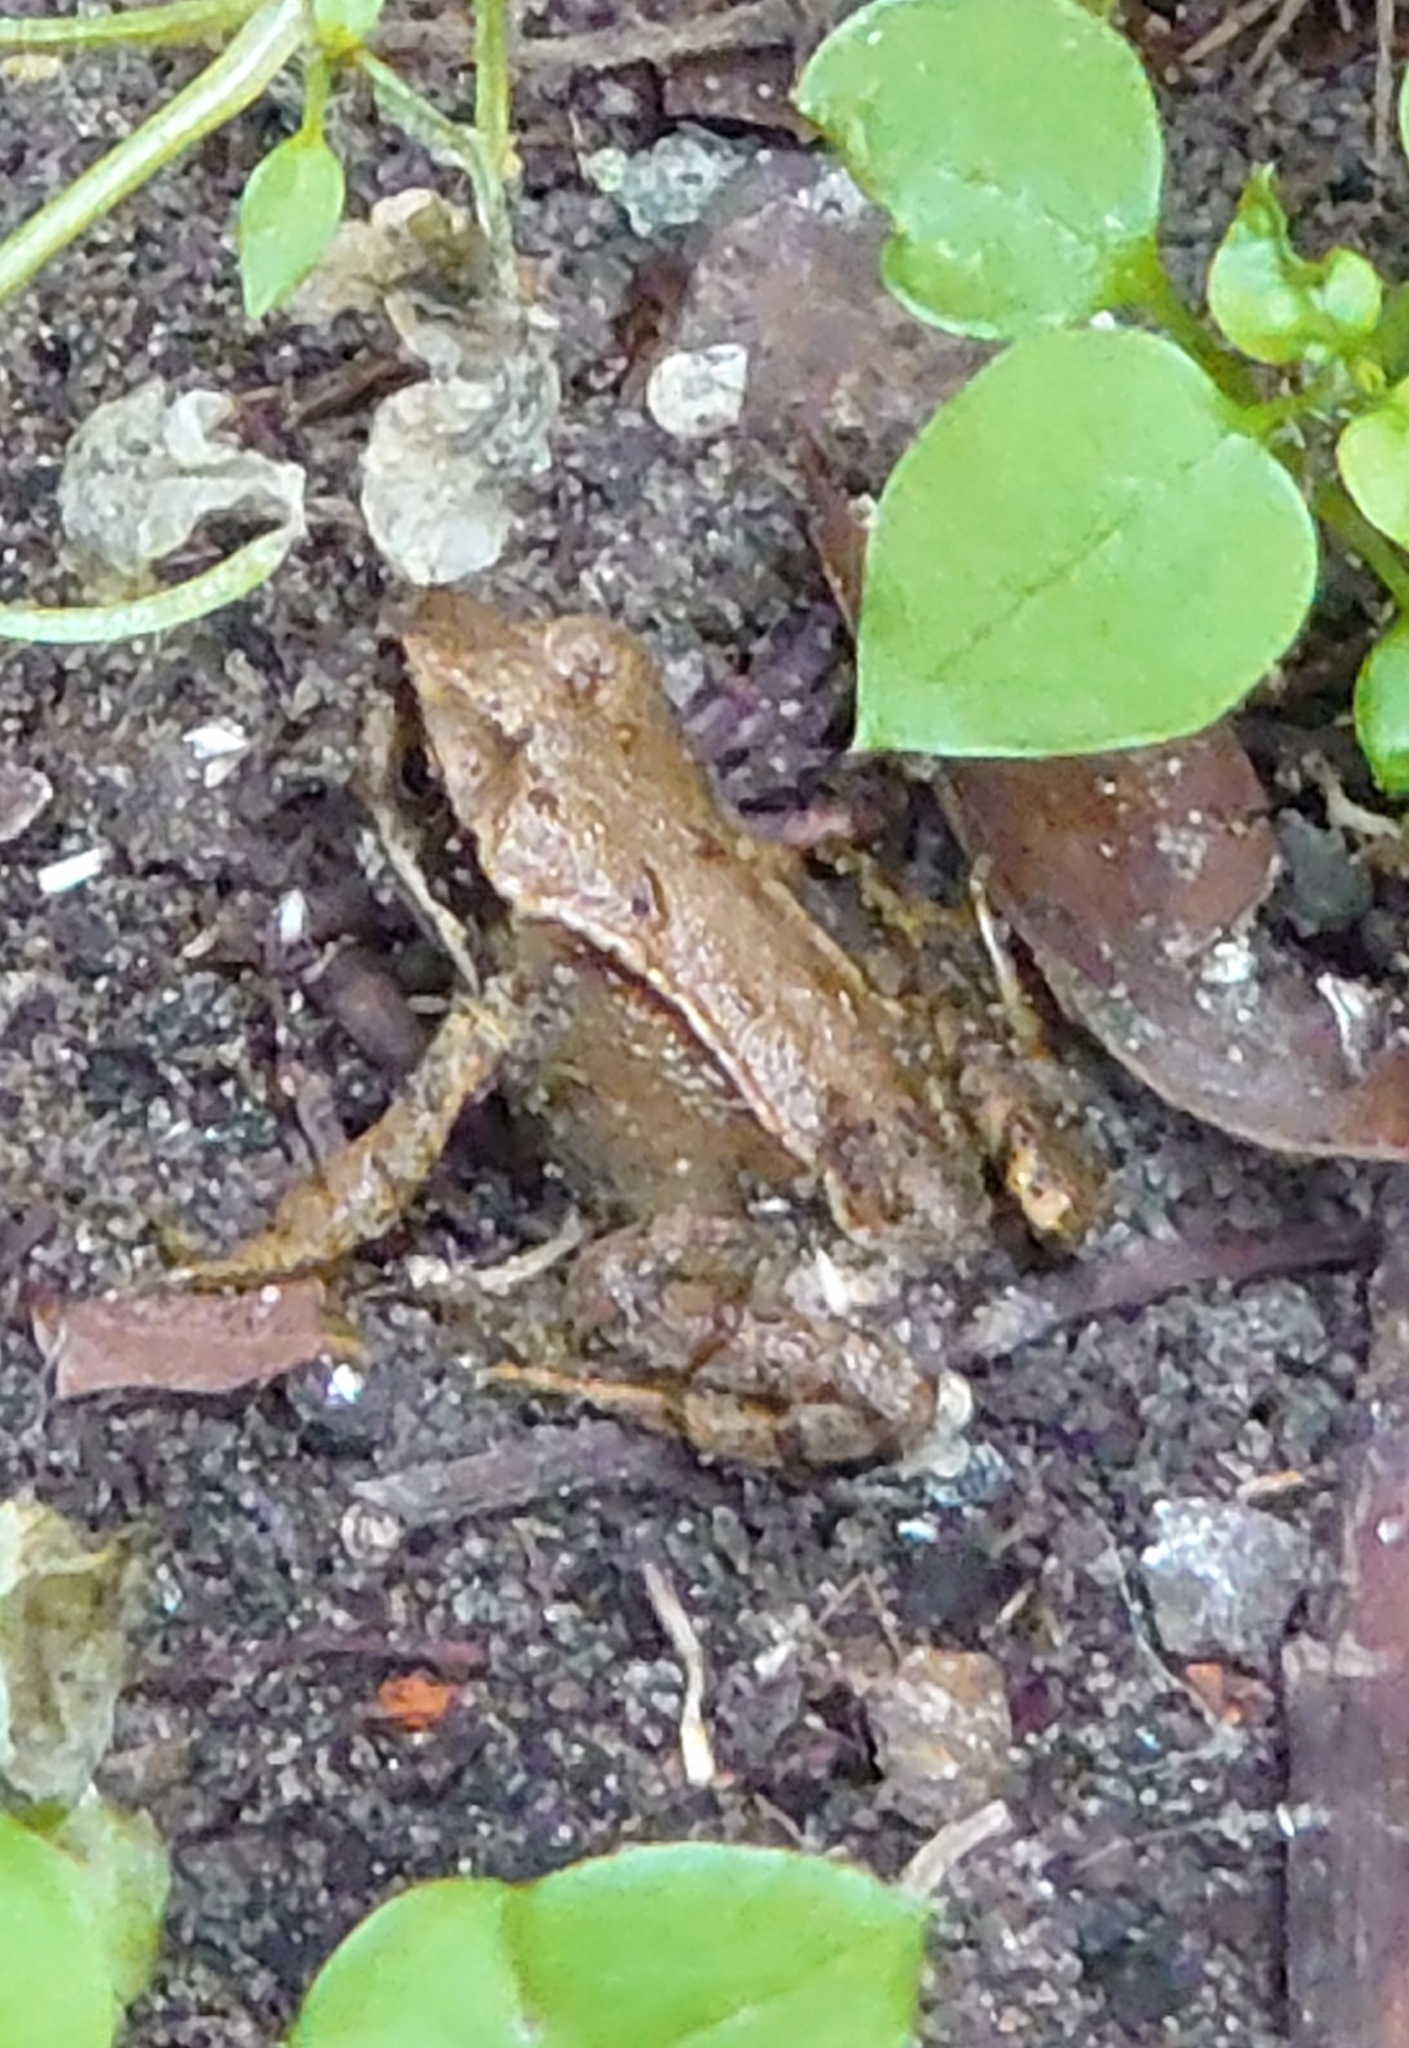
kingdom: Animalia
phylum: Chordata
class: Amphibia
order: Anura
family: Ranidae
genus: Rana
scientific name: Rana temporaria
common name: Common frog
